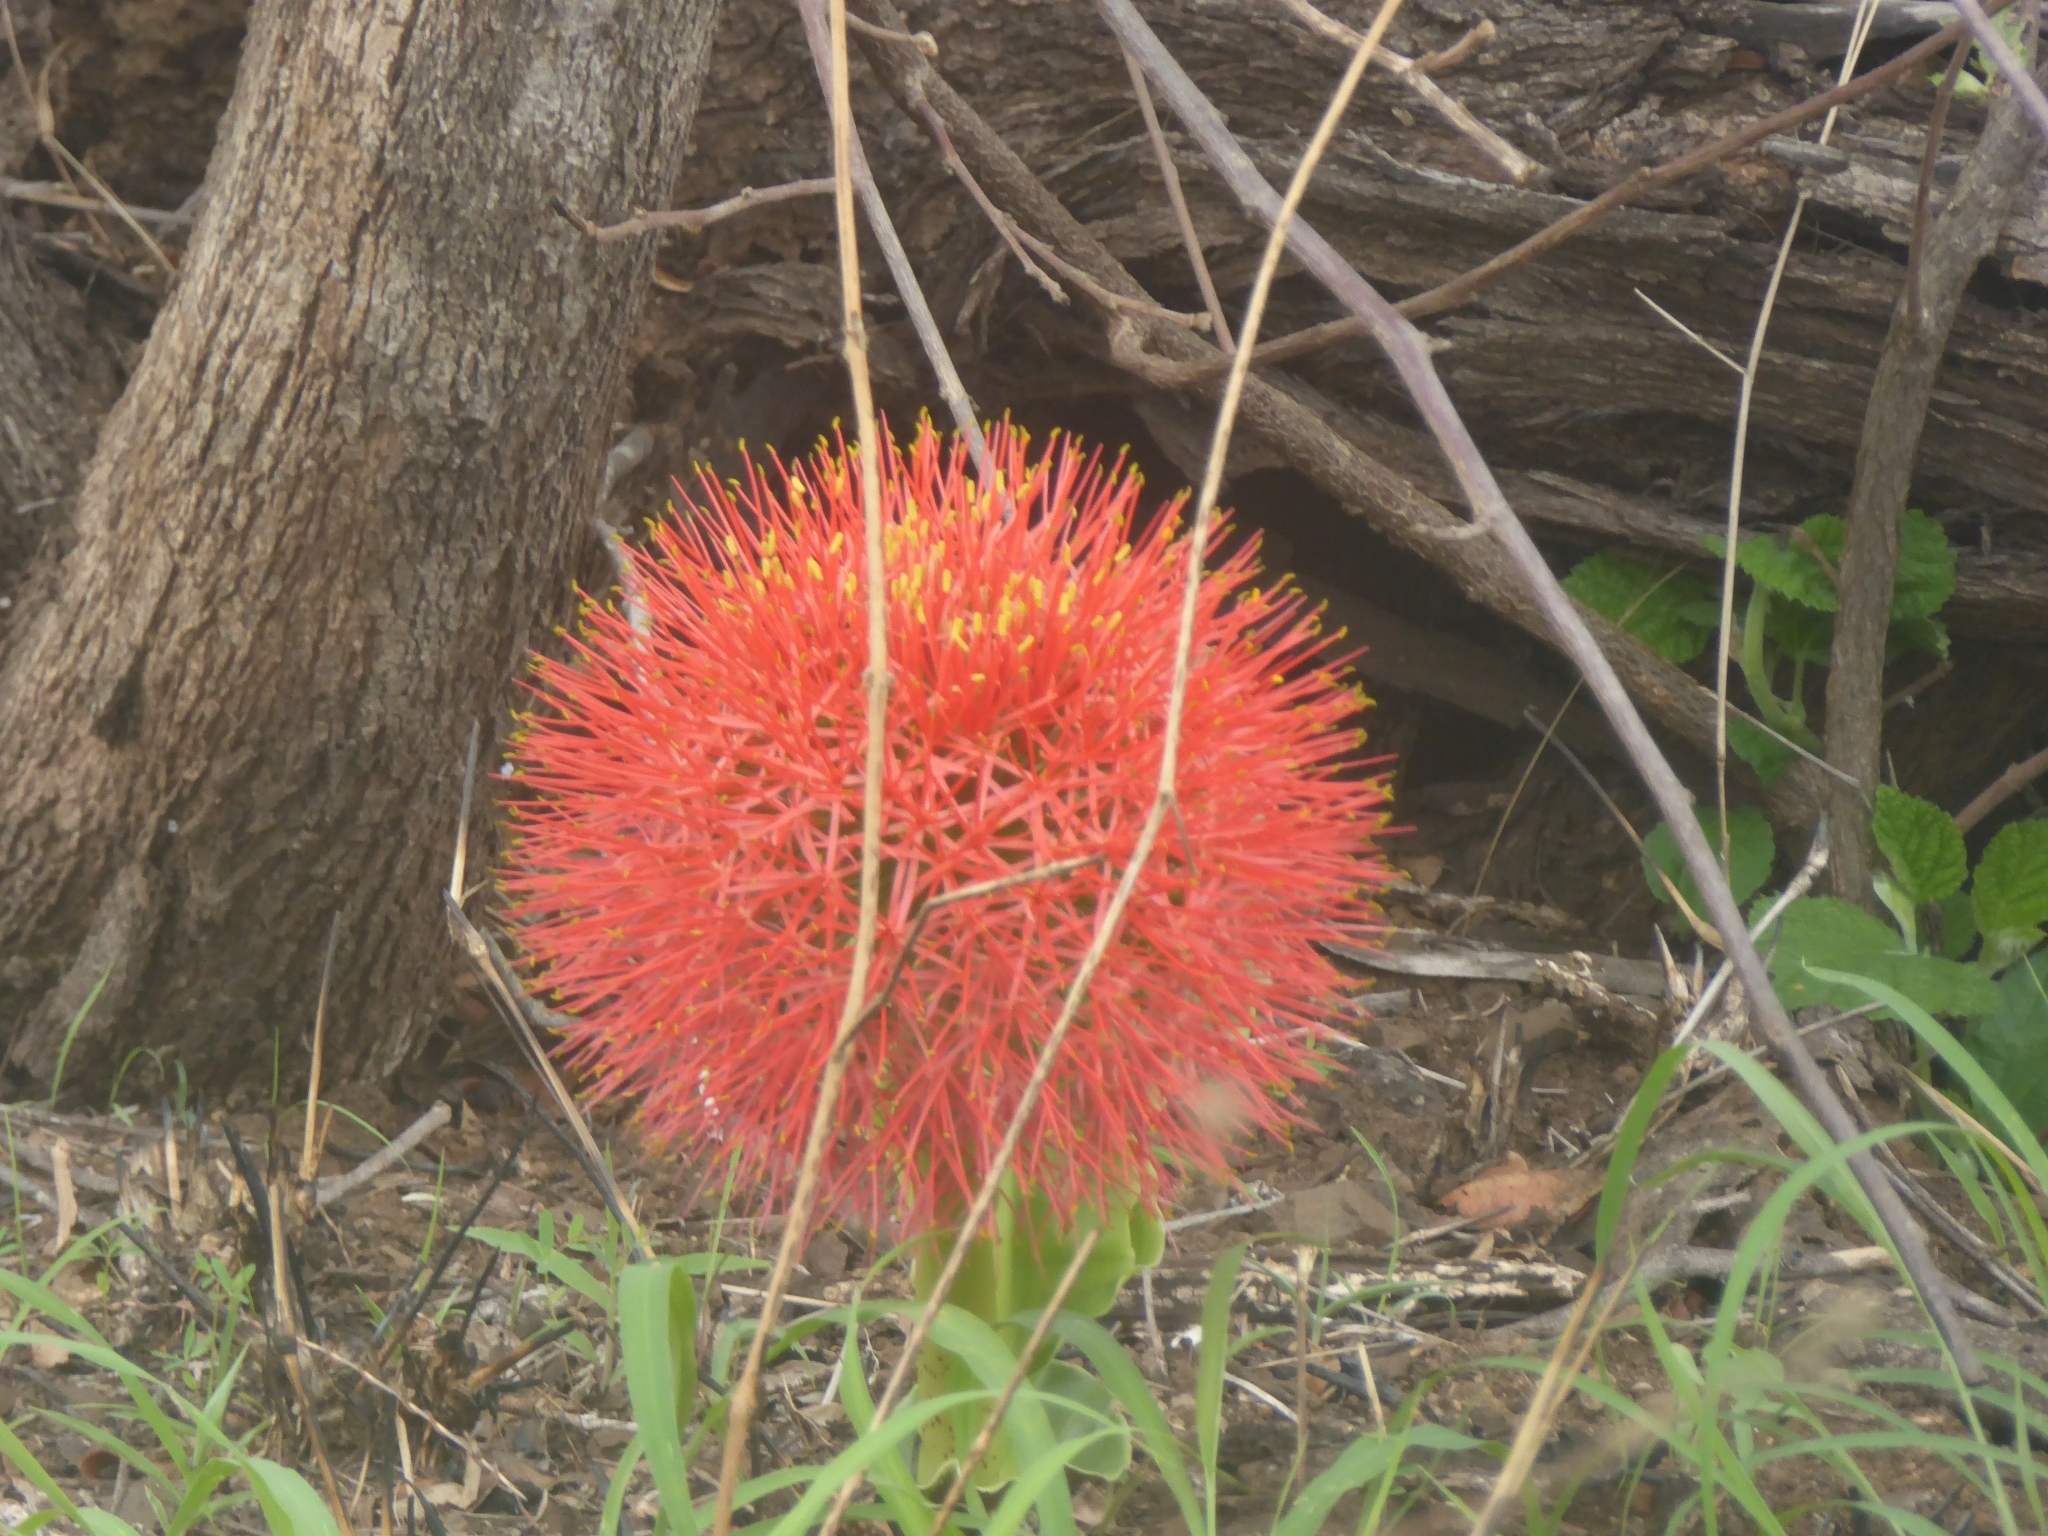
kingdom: Plantae
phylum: Tracheophyta
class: Liliopsida
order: Asparagales
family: Amaryllidaceae
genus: Scadoxus
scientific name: Scadoxus multiflorus
